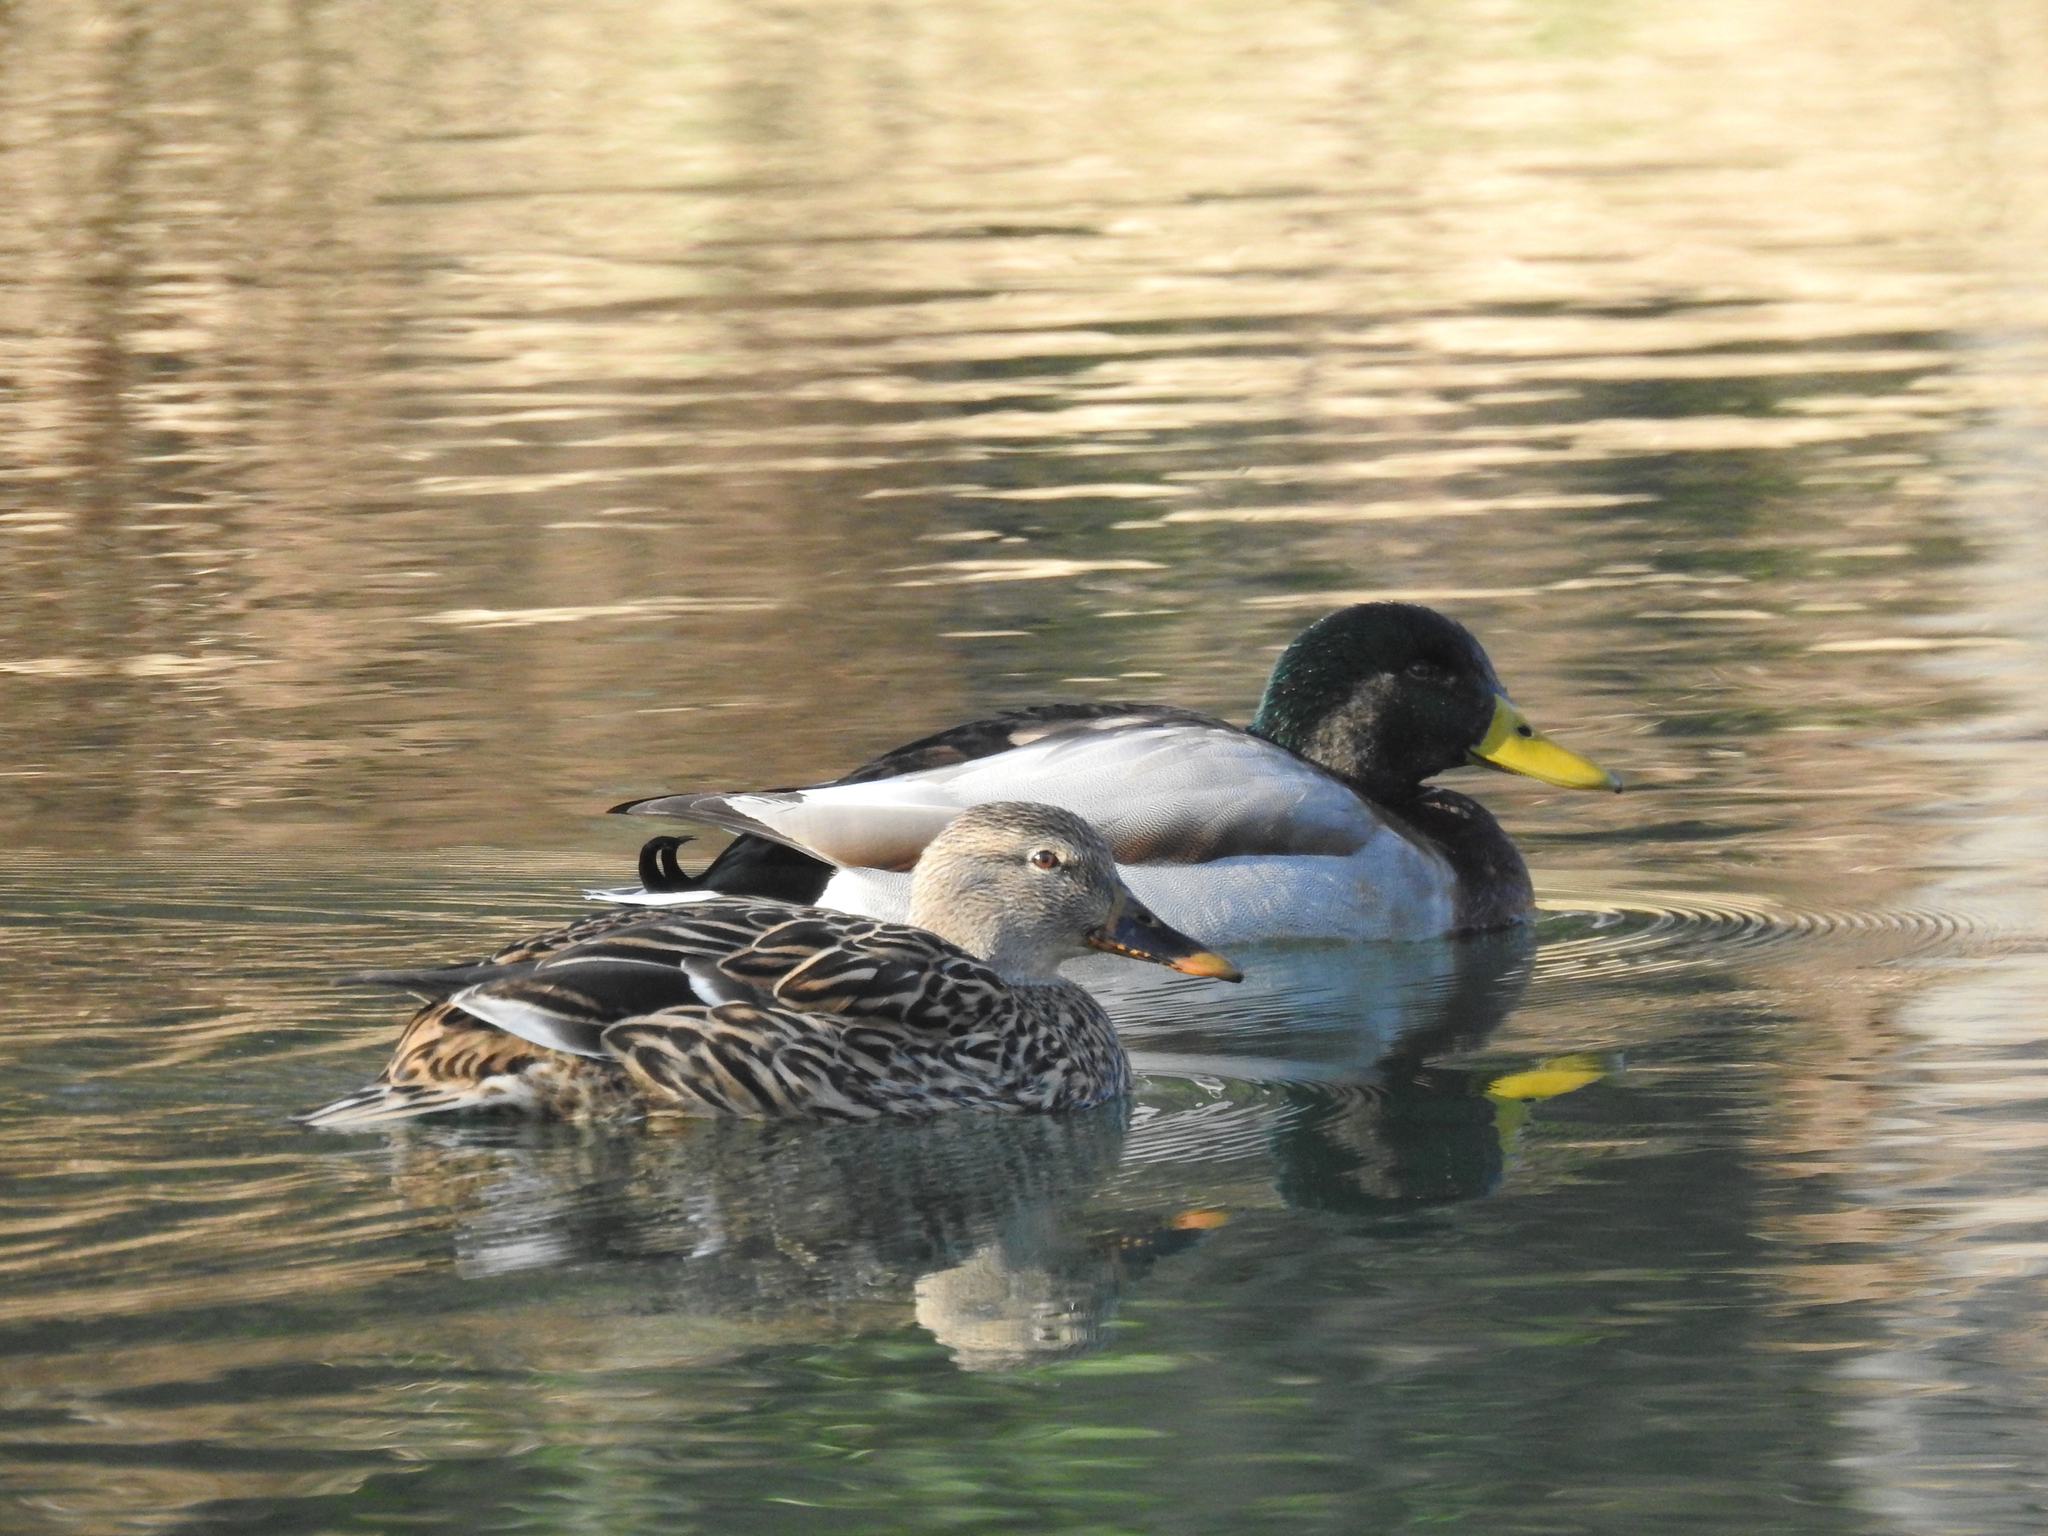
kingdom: Animalia
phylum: Chordata
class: Aves
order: Anseriformes
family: Anatidae
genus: Anas
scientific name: Anas platyrhynchos
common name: Mallard
